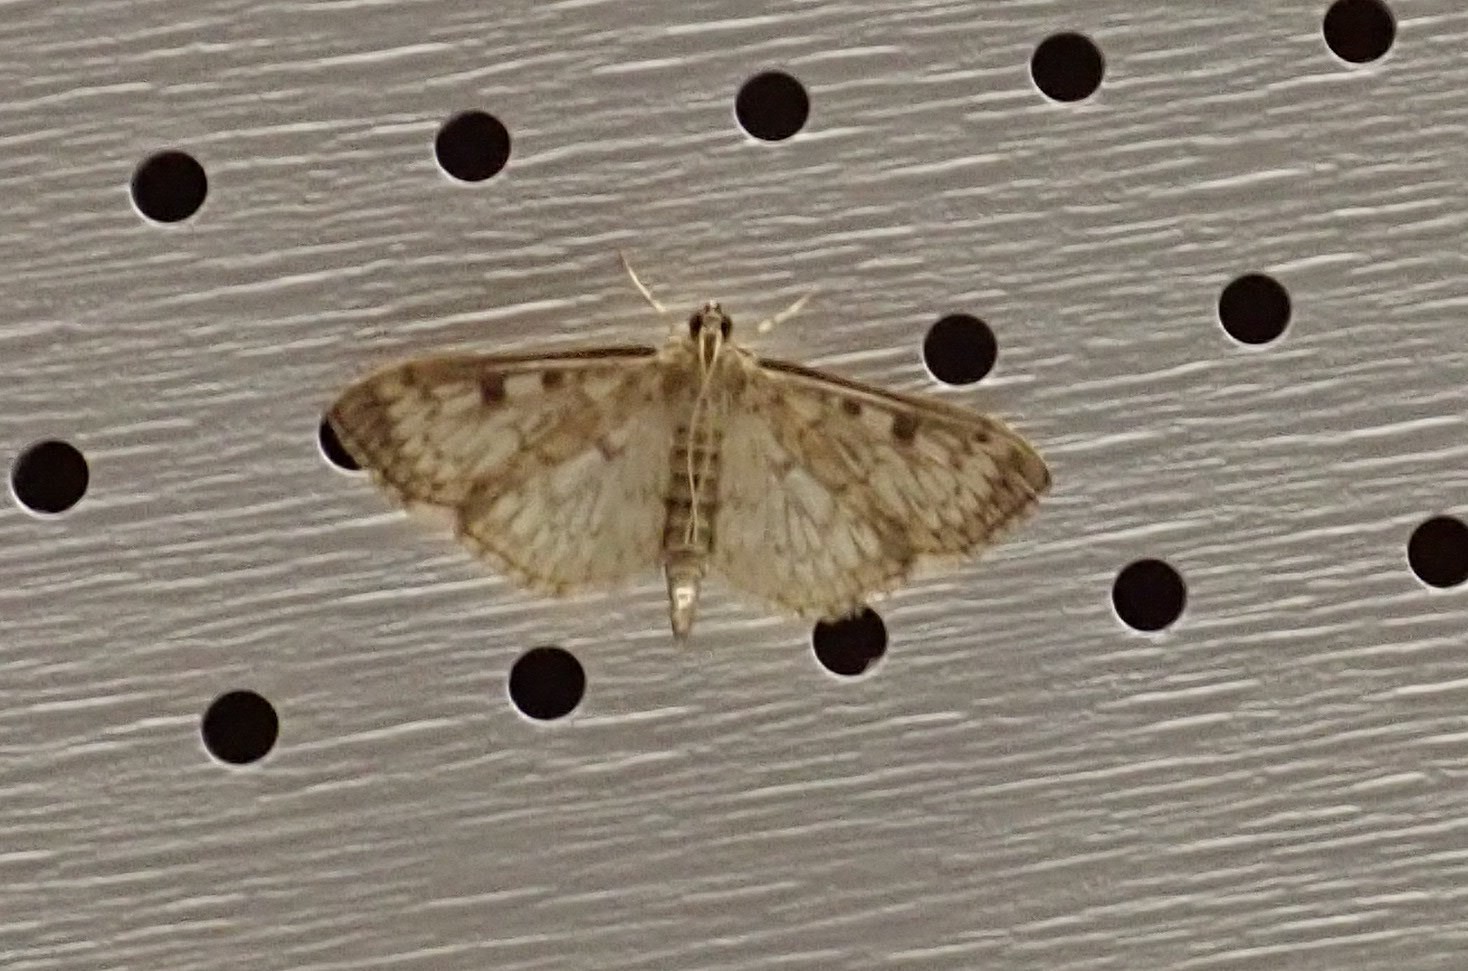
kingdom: Animalia
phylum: Arthropoda
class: Insecta
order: Lepidoptera
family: Crambidae
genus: Herpetogramma
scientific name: Herpetogramma aquilonalis
